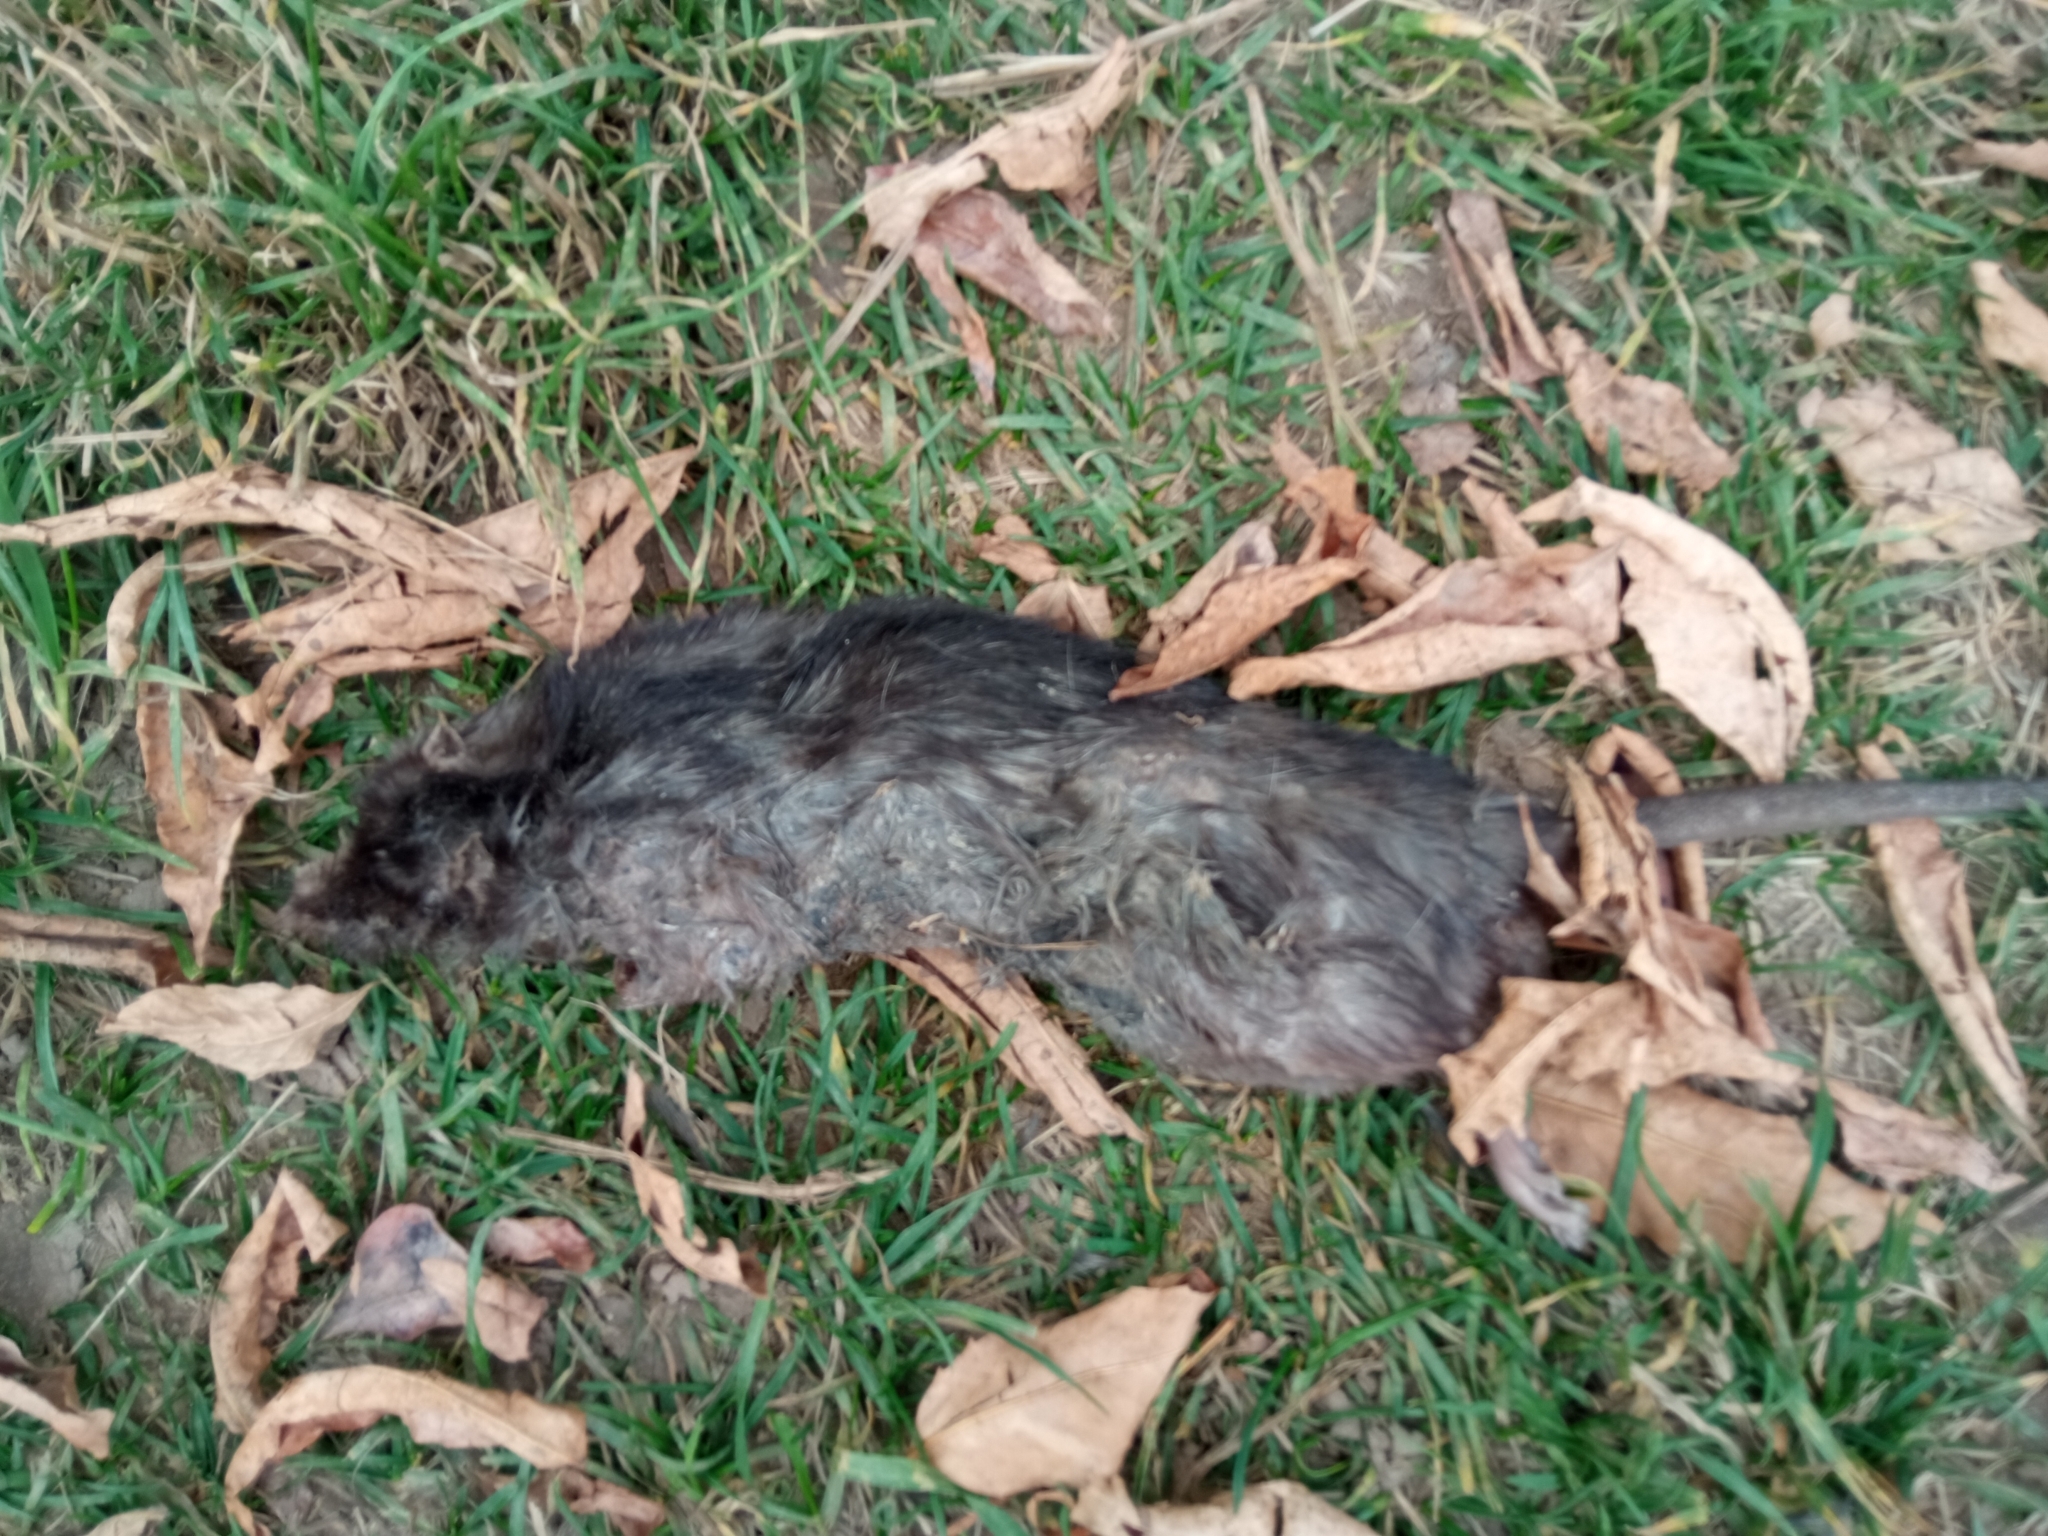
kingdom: Animalia
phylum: Chordata
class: Mammalia
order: Rodentia
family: Muridae
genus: Rattus
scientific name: Rattus norvegicus
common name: Brown rat
